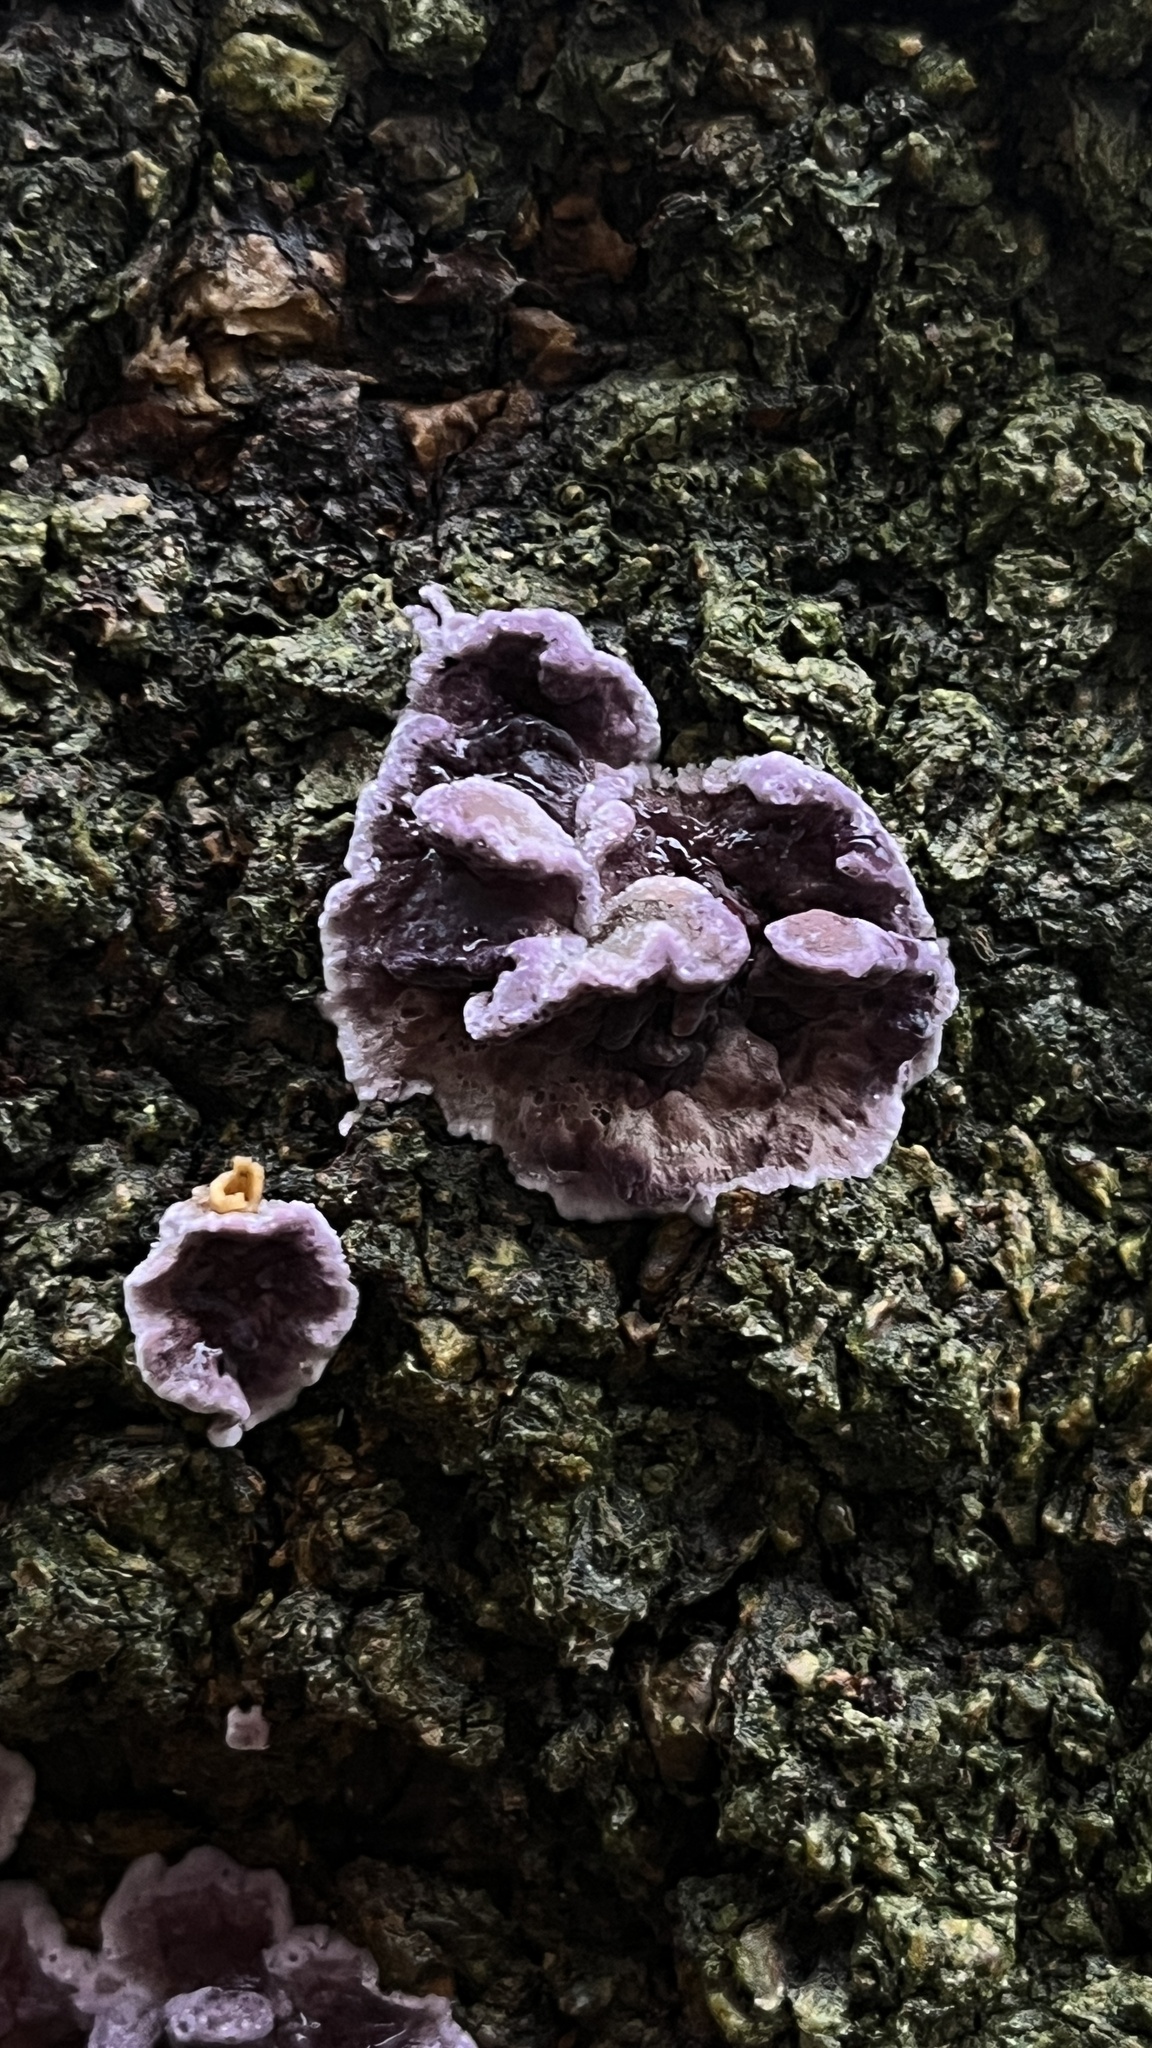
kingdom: Fungi
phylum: Basidiomycota
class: Agaricomycetes
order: Agaricales
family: Cyphellaceae
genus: Chondrostereum
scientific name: Chondrostereum purpureum
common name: Silver leaf disease
